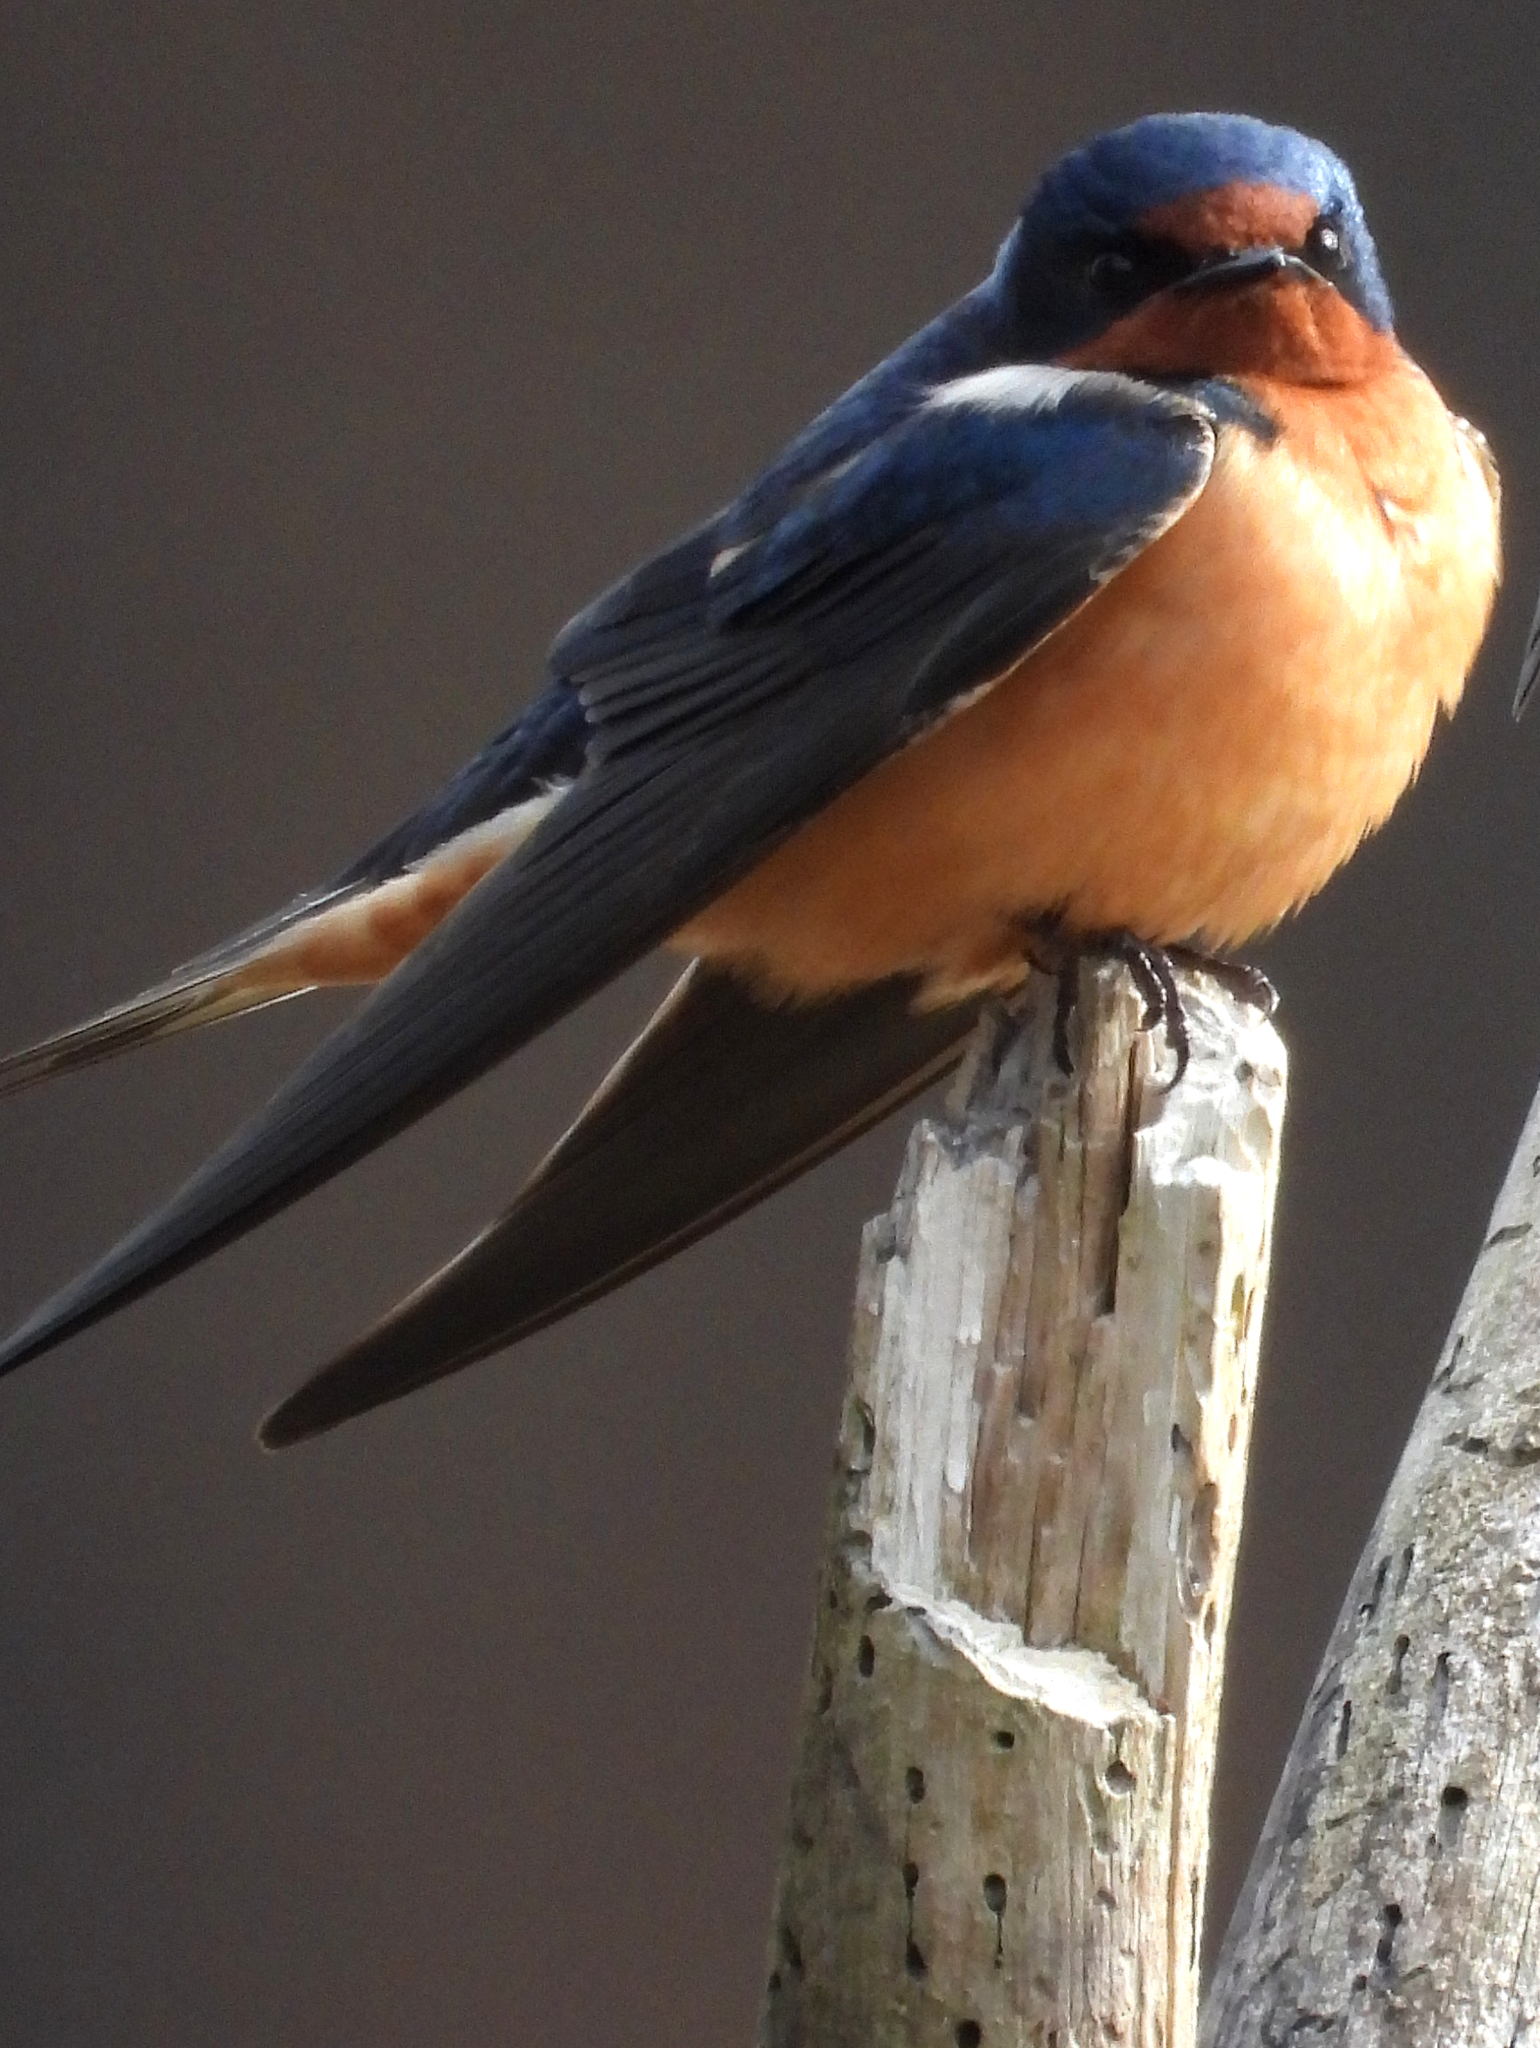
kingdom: Animalia
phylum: Chordata
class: Aves
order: Passeriformes
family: Hirundinidae
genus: Hirundo
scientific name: Hirundo rustica
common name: Barn swallow
